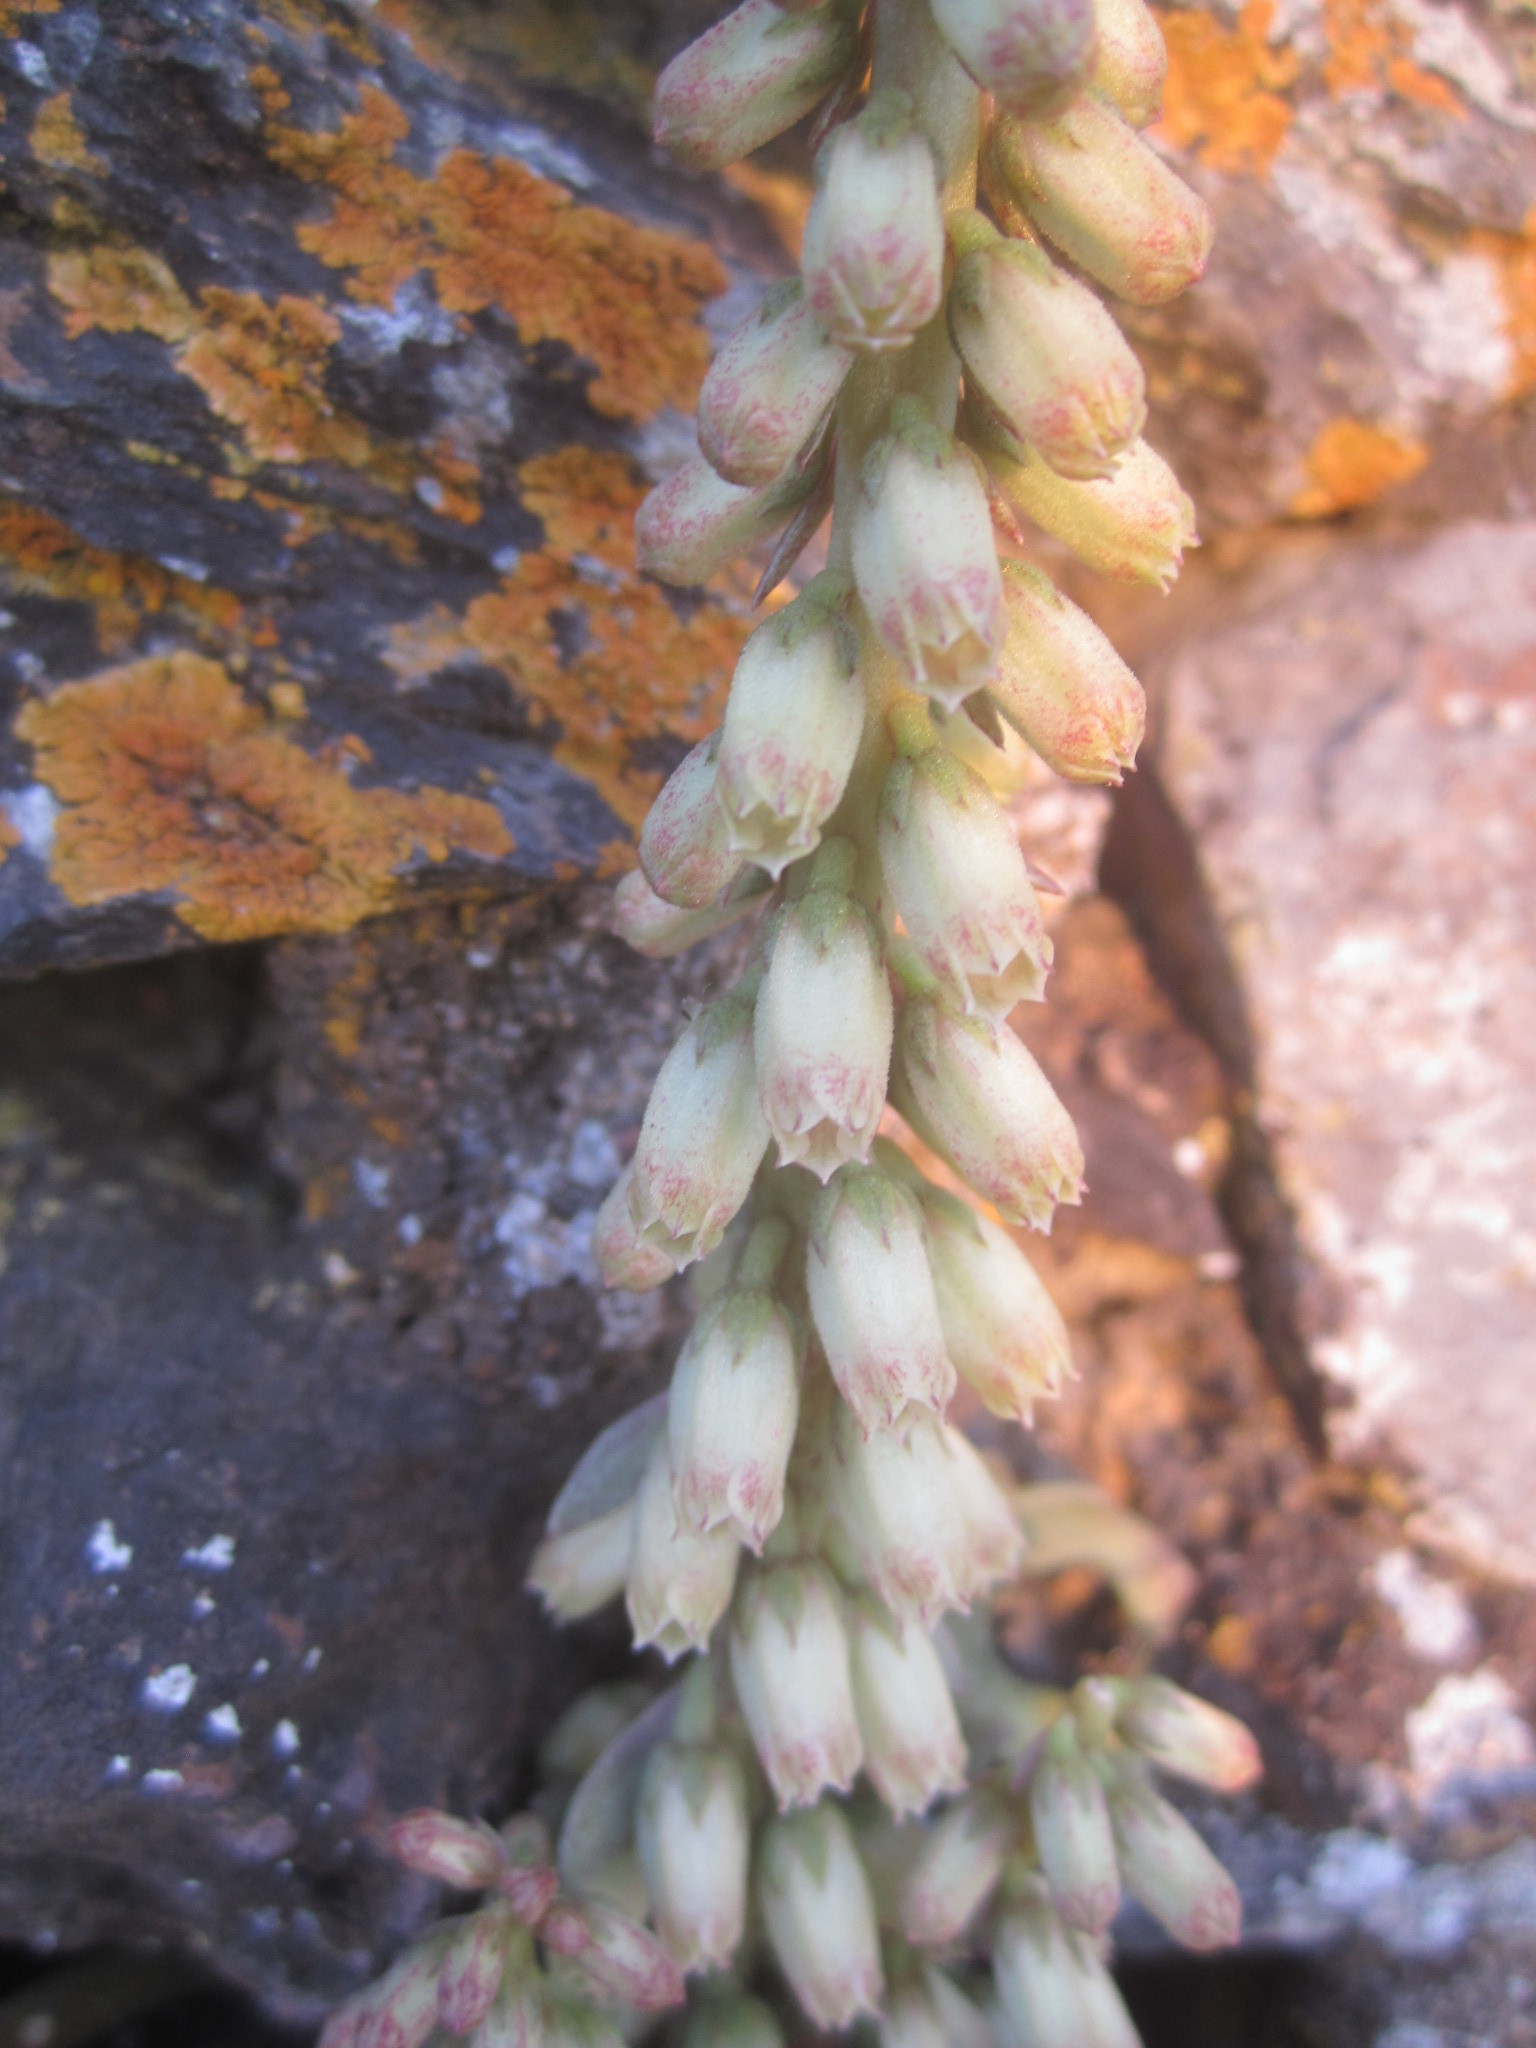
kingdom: Plantae
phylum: Tracheophyta
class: Magnoliopsida
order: Saxifragales
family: Crassulaceae
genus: Umbilicus
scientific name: Umbilicus rupestris
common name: Navelwort
